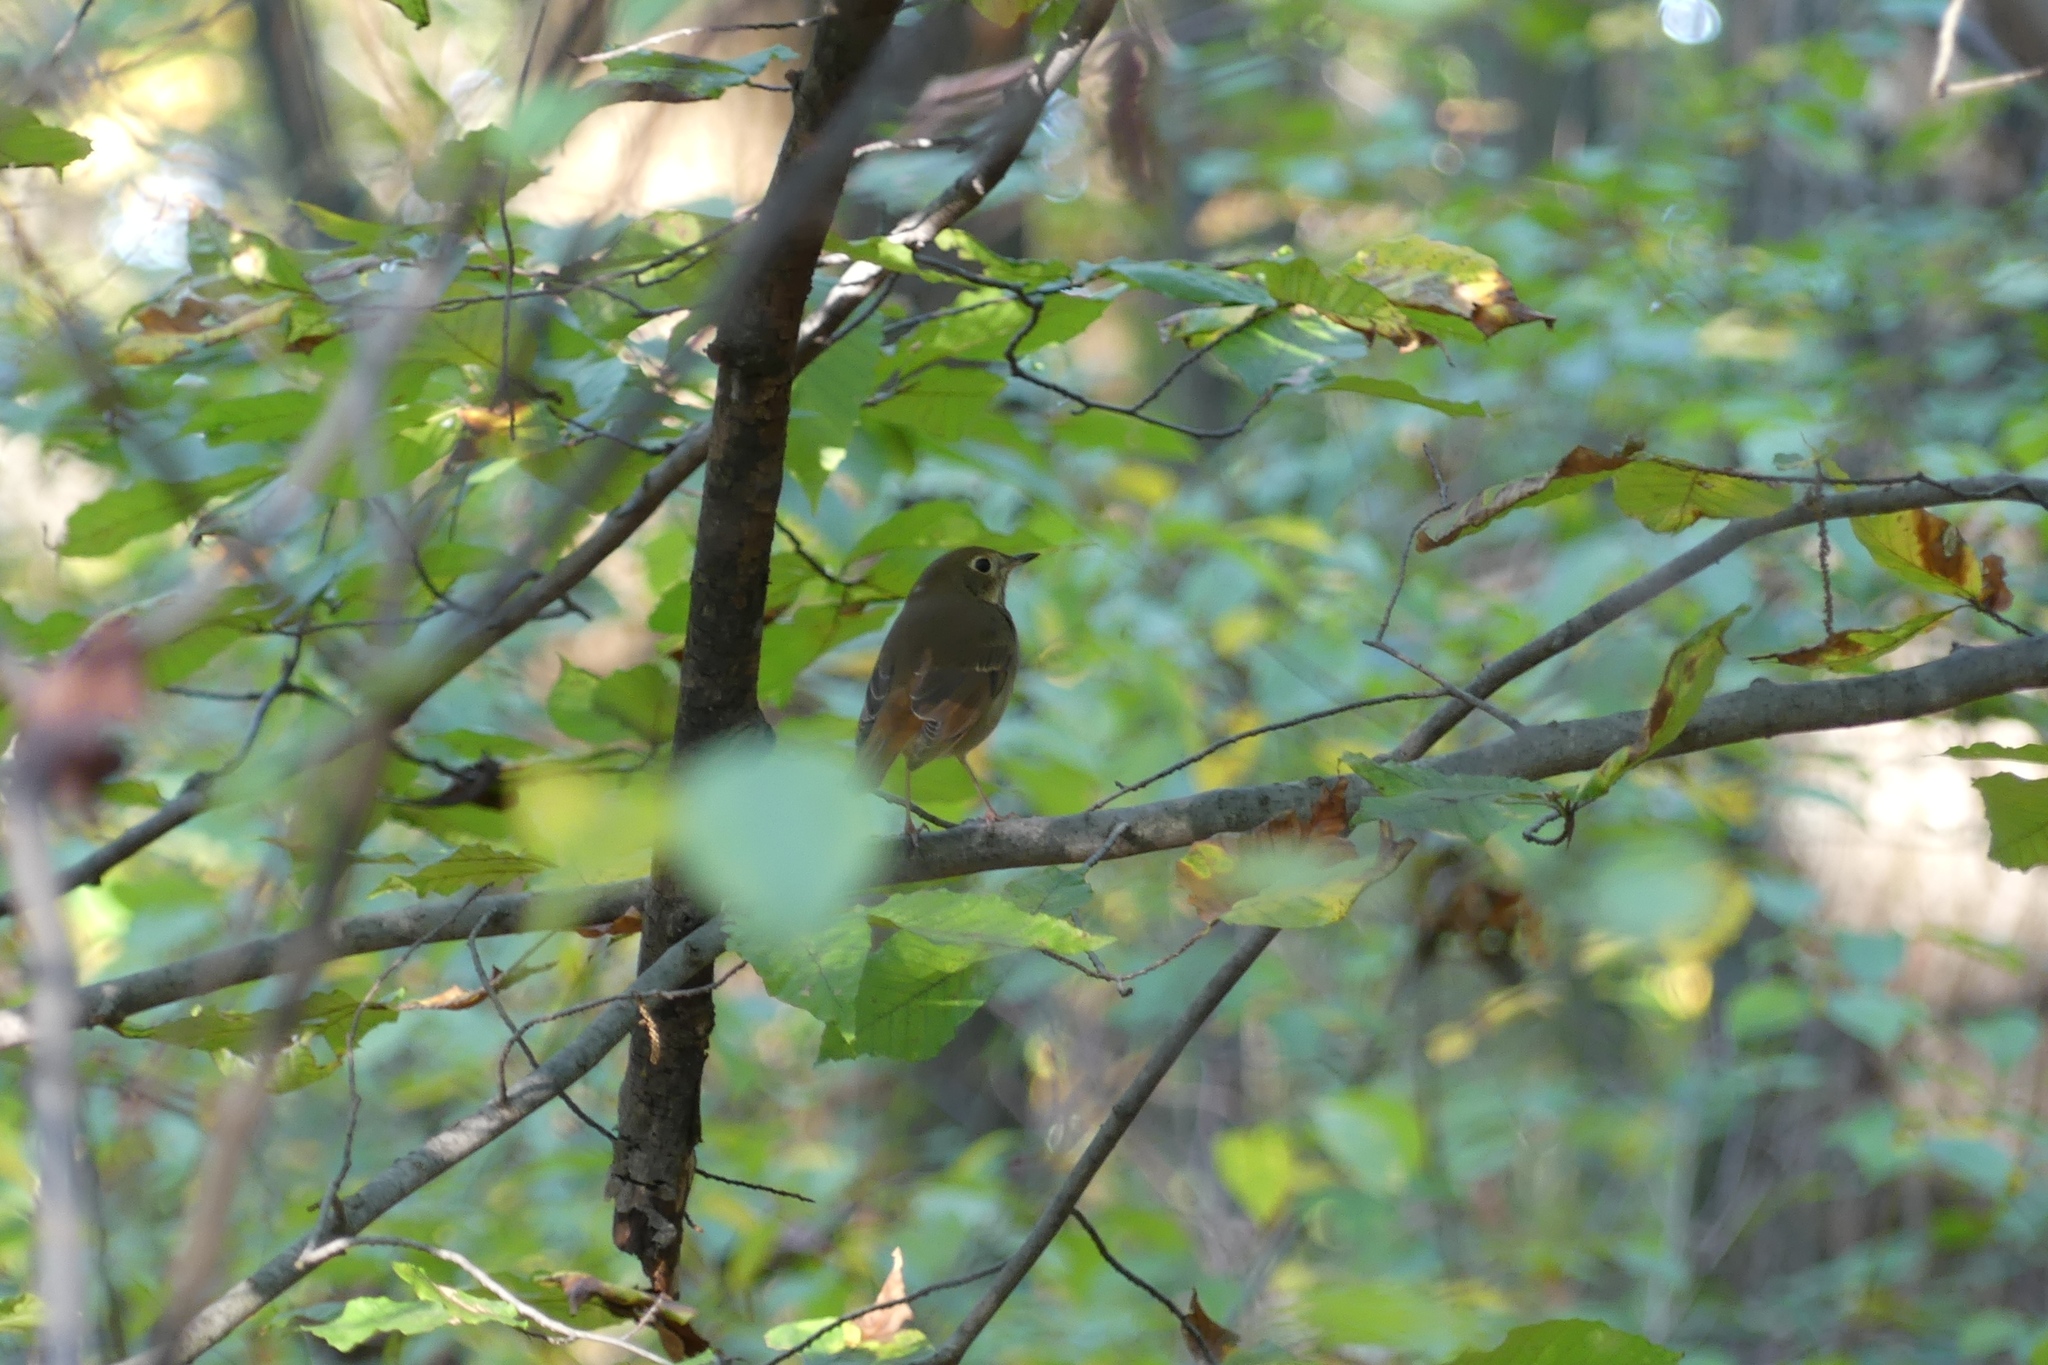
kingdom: Animalia
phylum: Chordata
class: Aves
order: Passeriformes
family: Turdidae
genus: Catharus
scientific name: Catharus guttatus
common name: Hermit thrush
